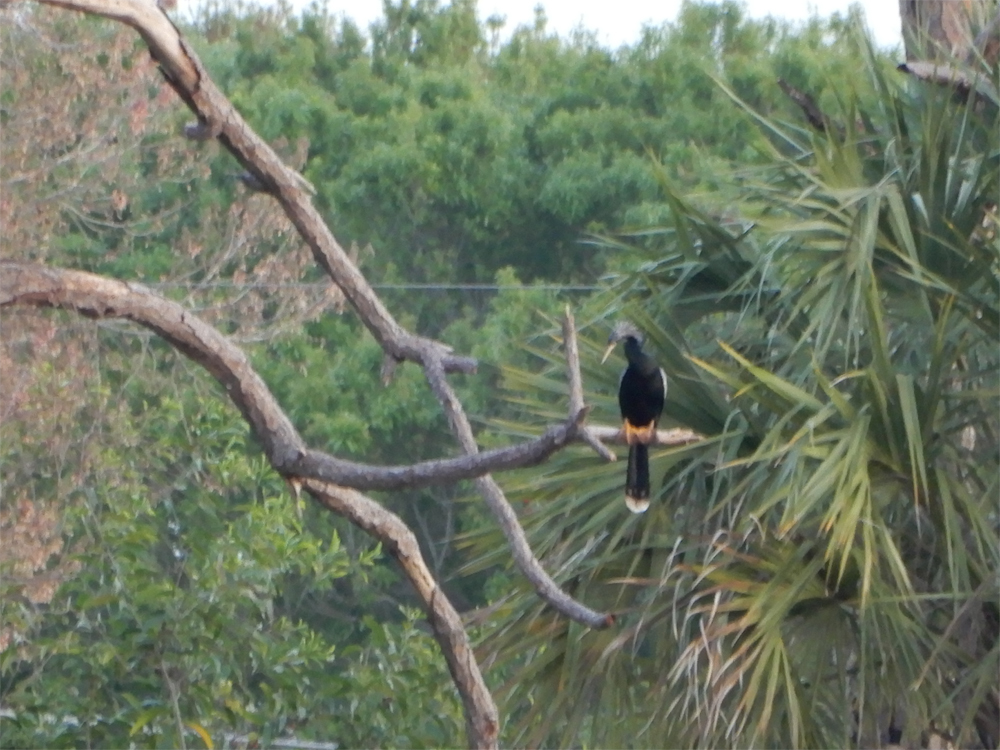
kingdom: Animalia
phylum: Chordata
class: Aves
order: Suliformes
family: Anhingidae
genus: Anhinga
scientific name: Anhinga anhinga
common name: Anhinga
